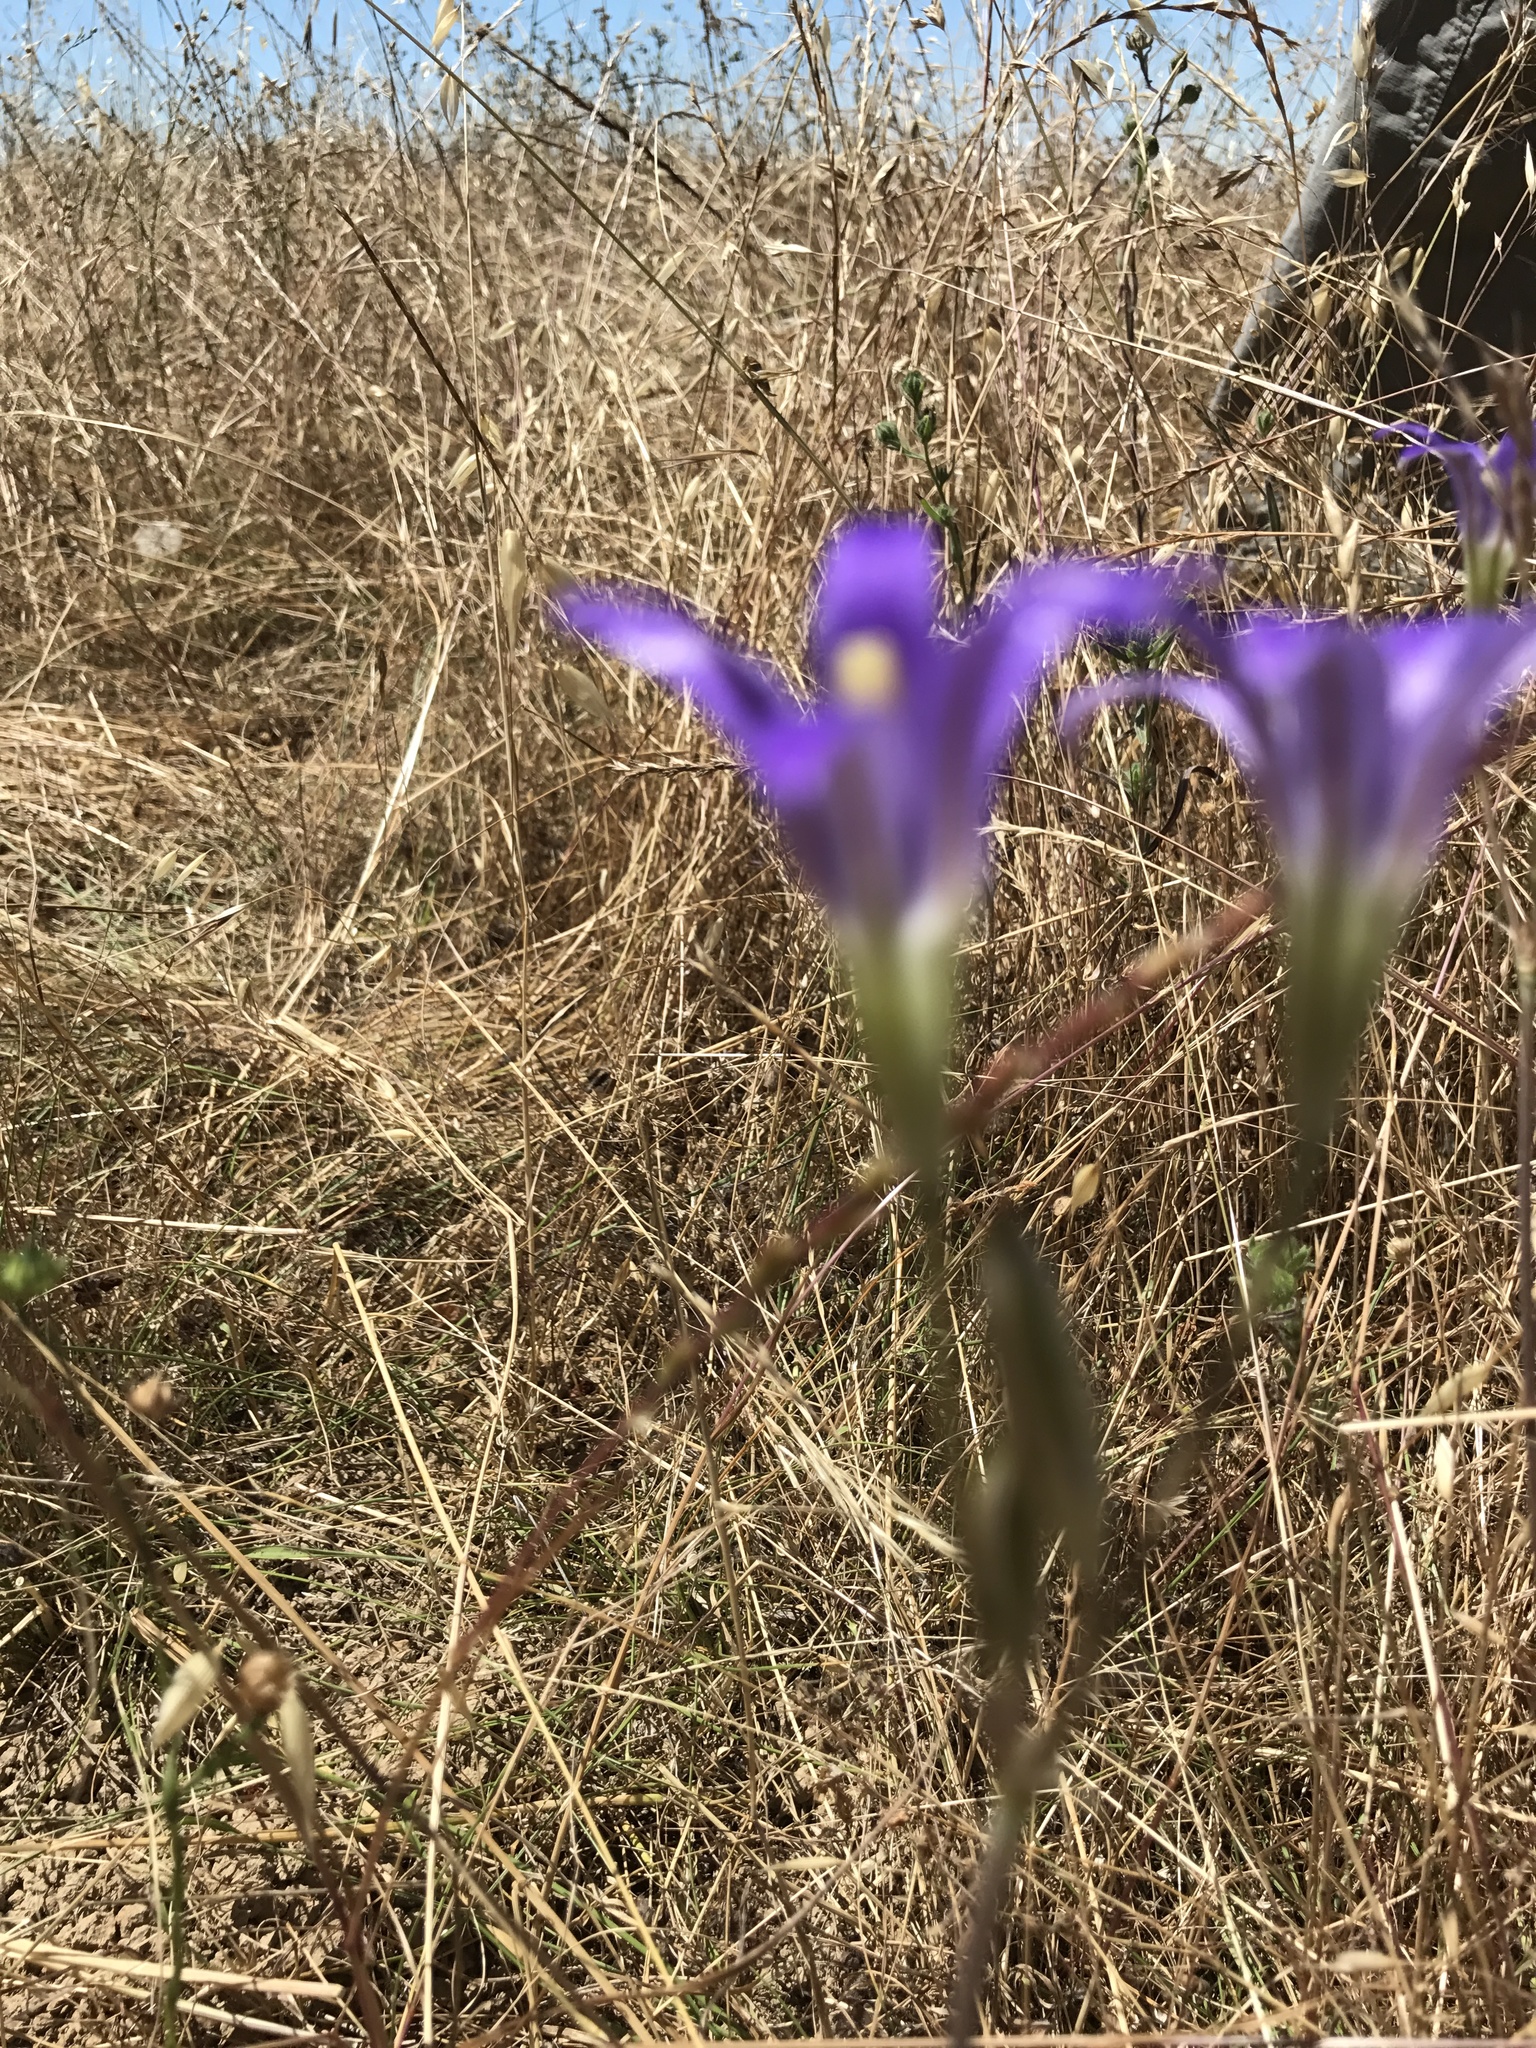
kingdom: Plantae
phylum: Tracheophyta
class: Liliopsida
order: Asparagales
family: Asparagaceae
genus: Brodiaea
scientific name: Brodiaea elegans
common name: Elegant cluster-lily
